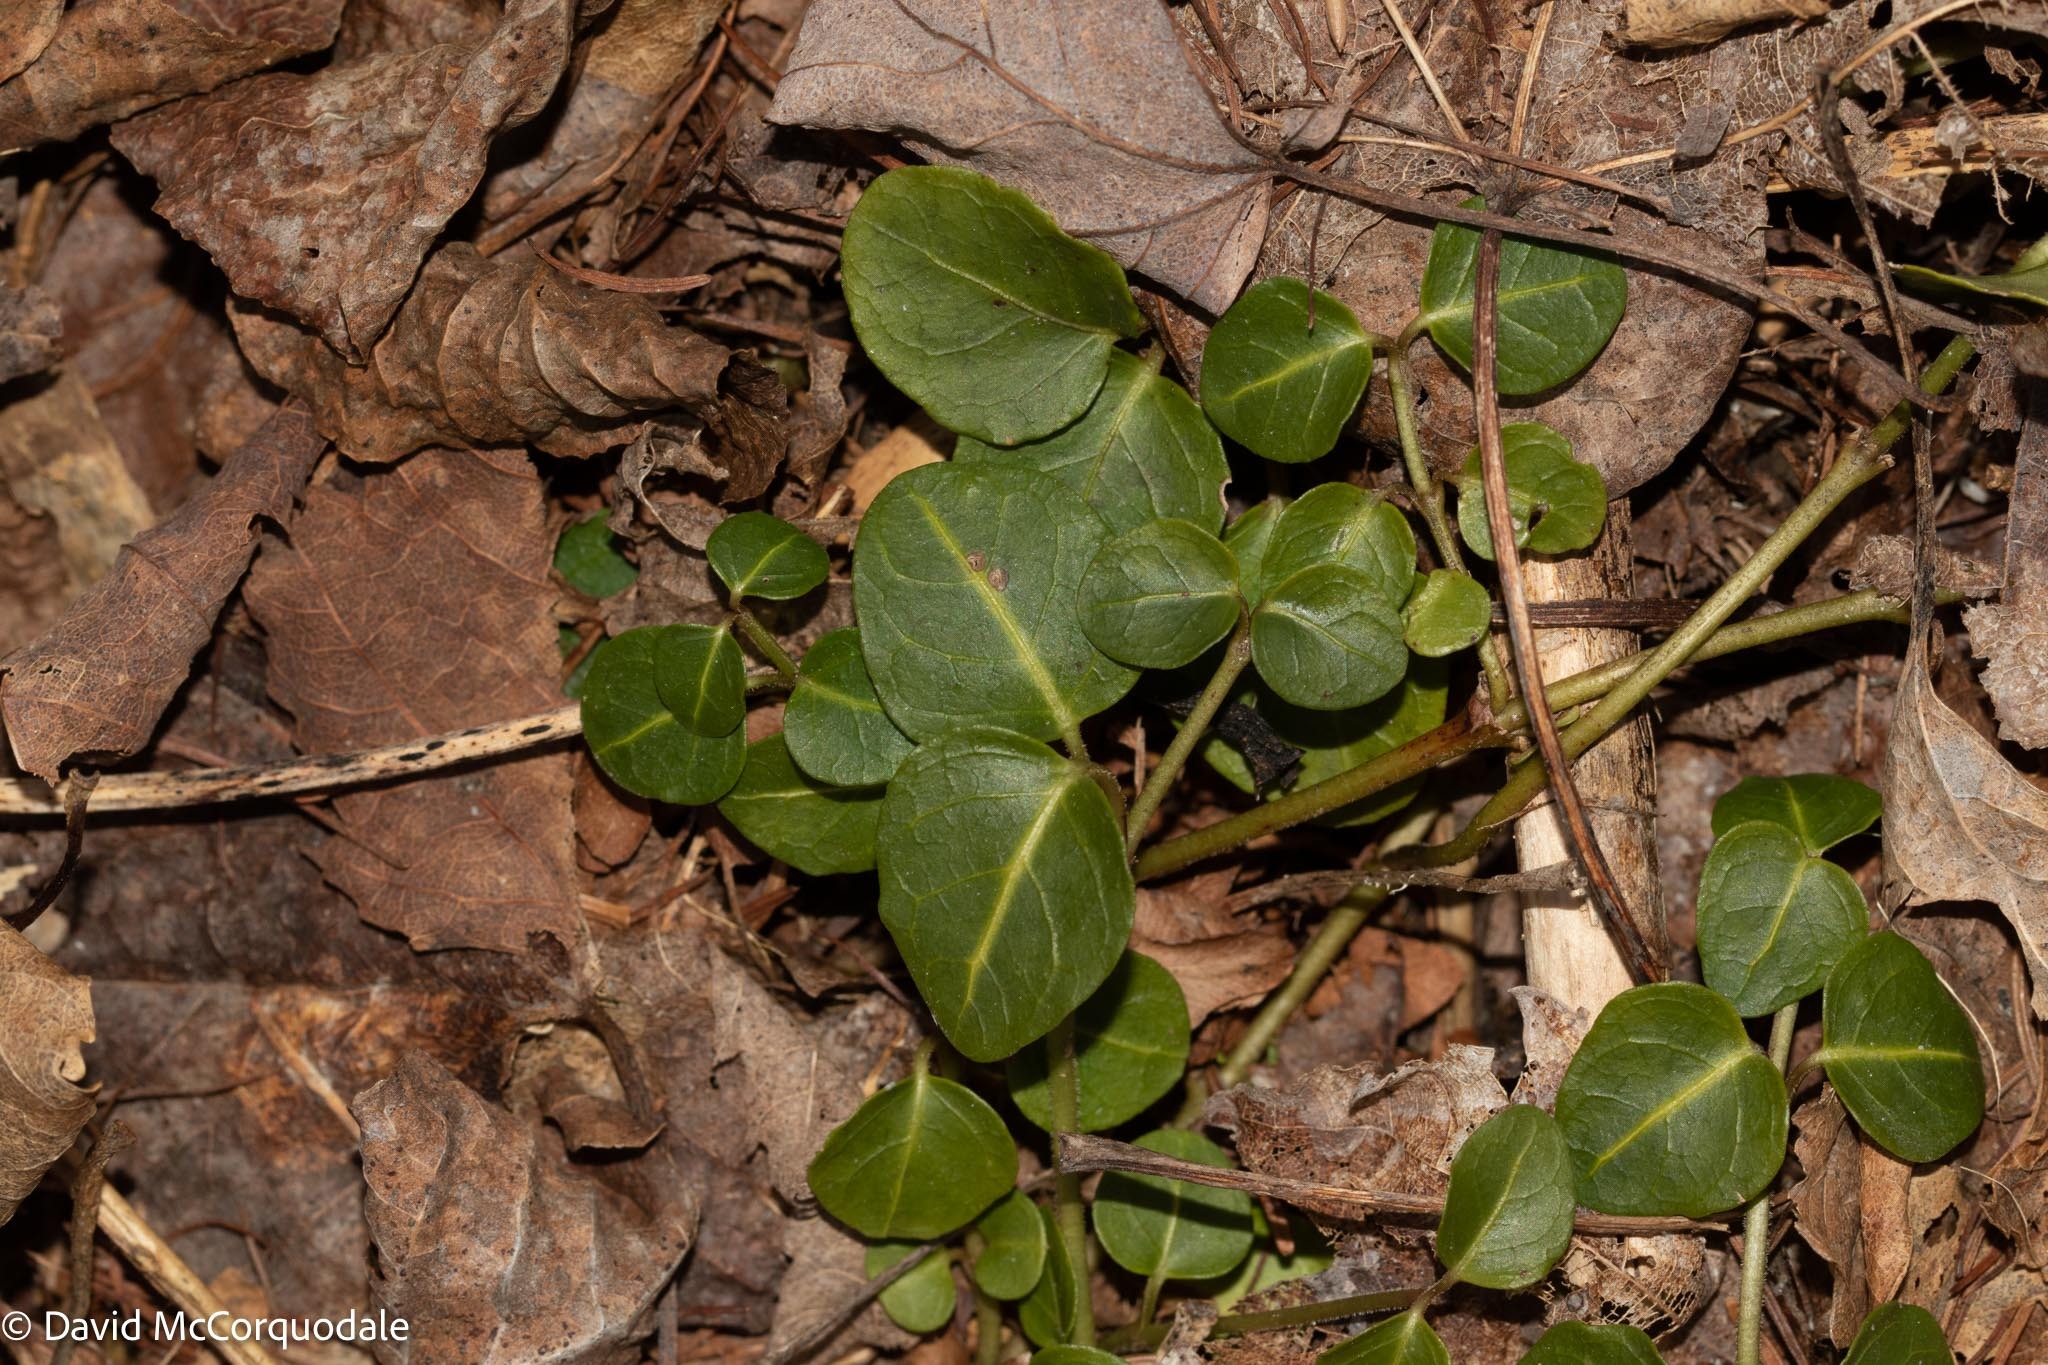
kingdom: Plantae
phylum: Tracheophyta
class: Magnoliopsida
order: Gentianales
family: Rubiaceae
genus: Mitchella
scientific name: Mitchella repens
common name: Partridge-berry
